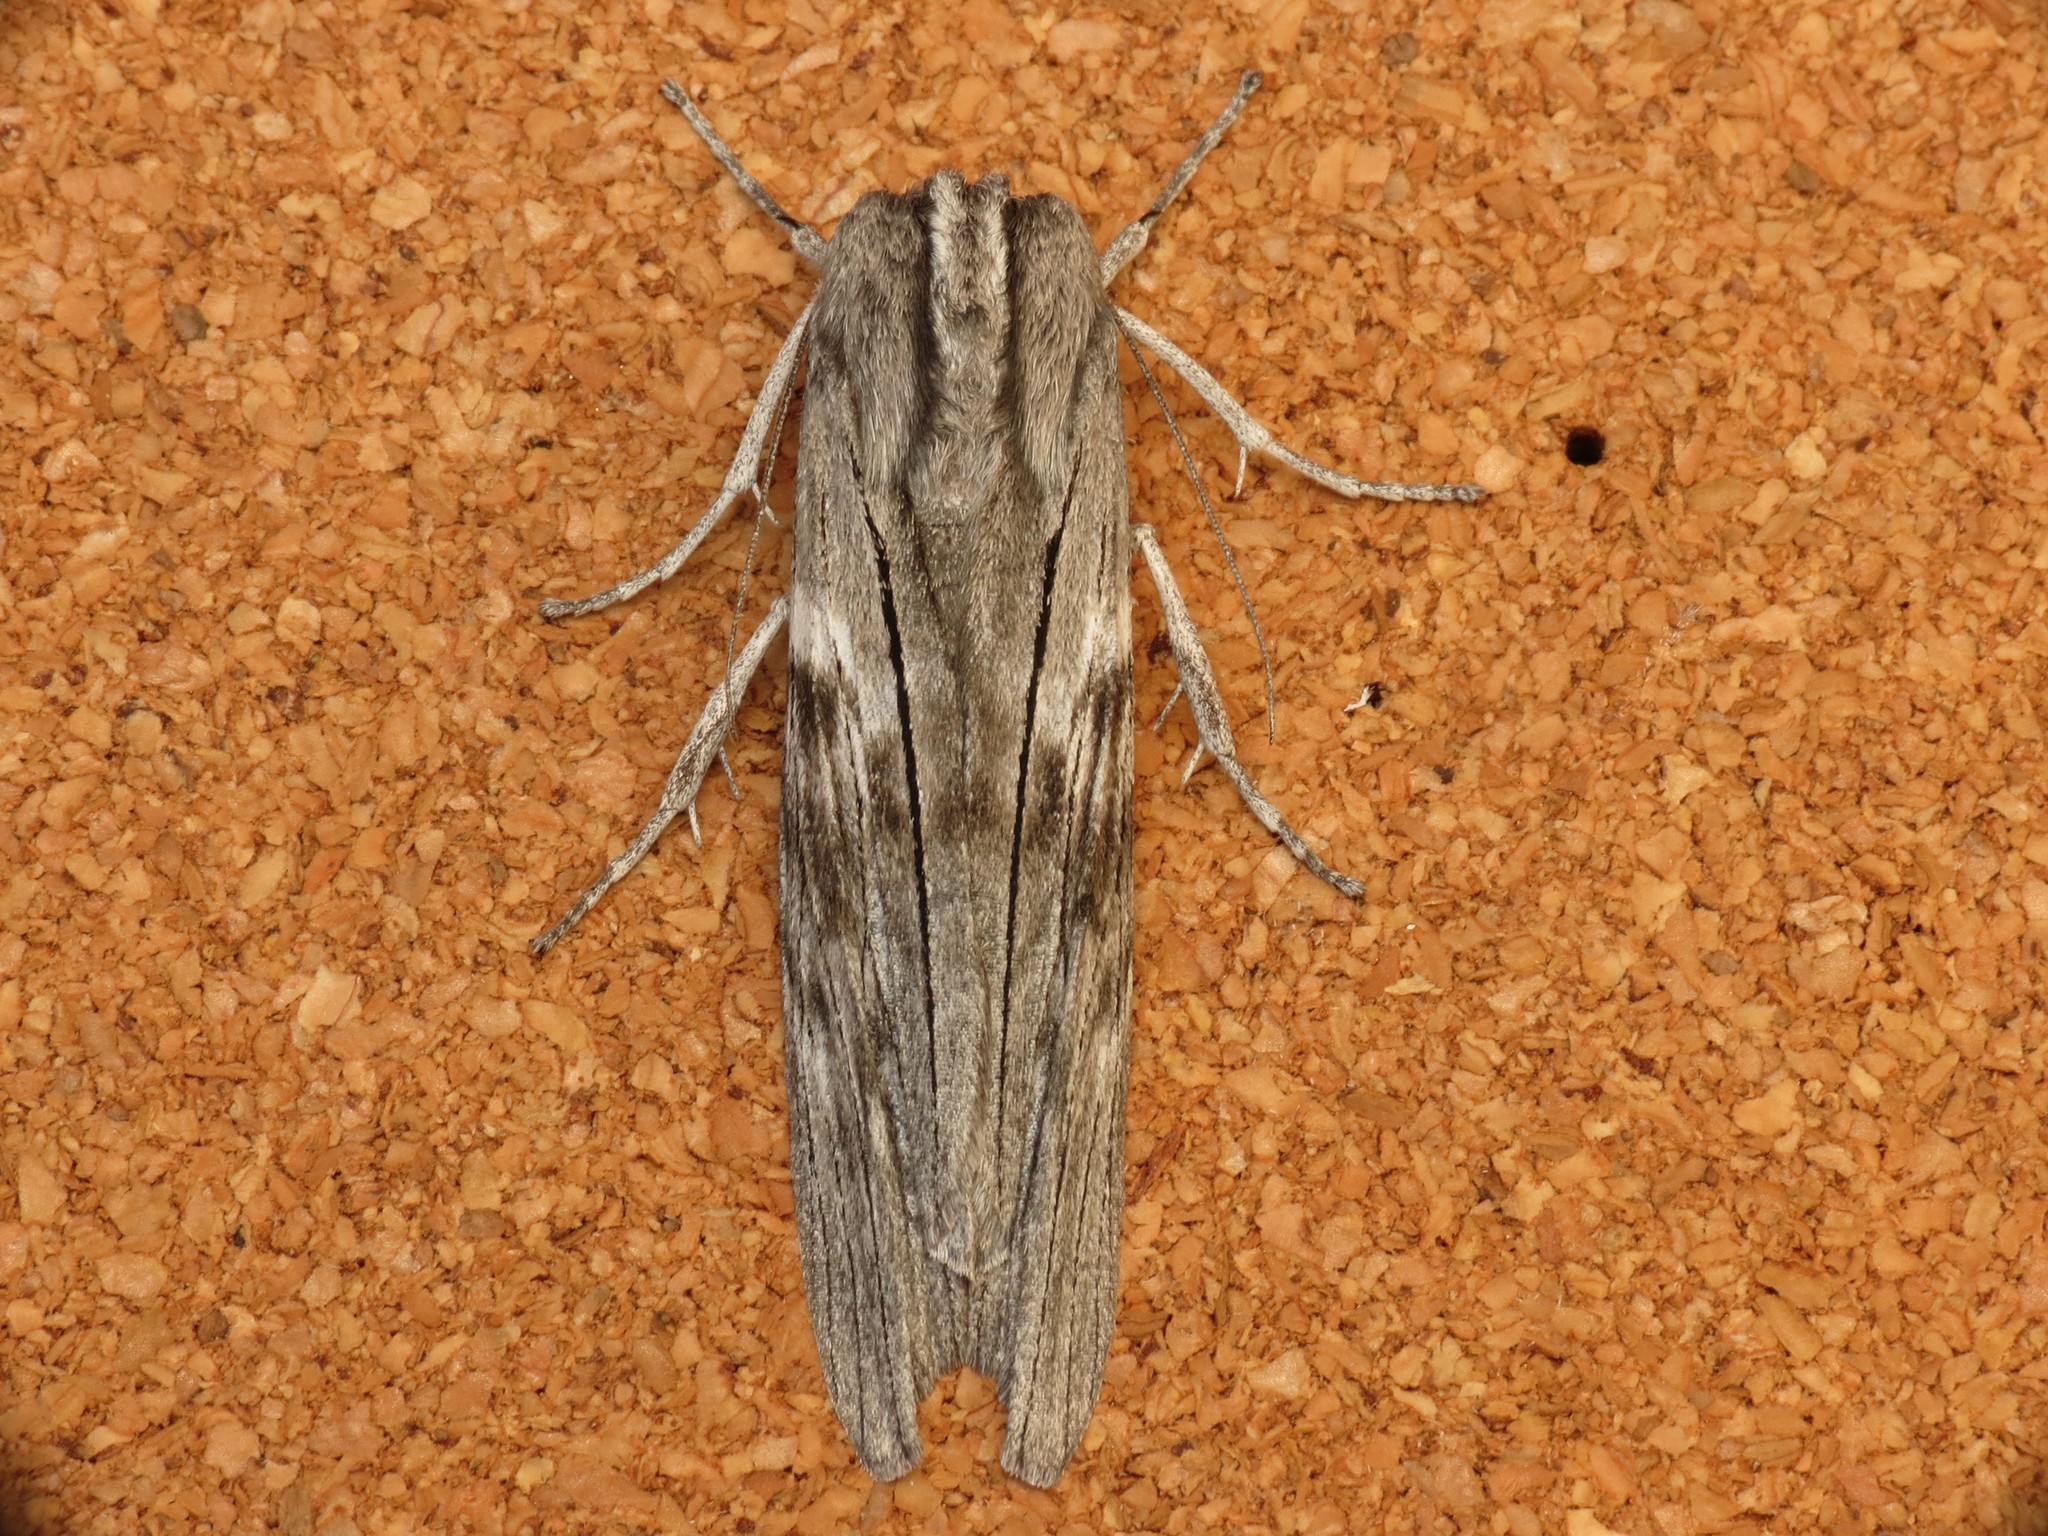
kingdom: Animalia
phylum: Arthropoda
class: Insecta
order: Lepidoptera
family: Geometridae
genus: Capusa
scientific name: Capusa senilis
